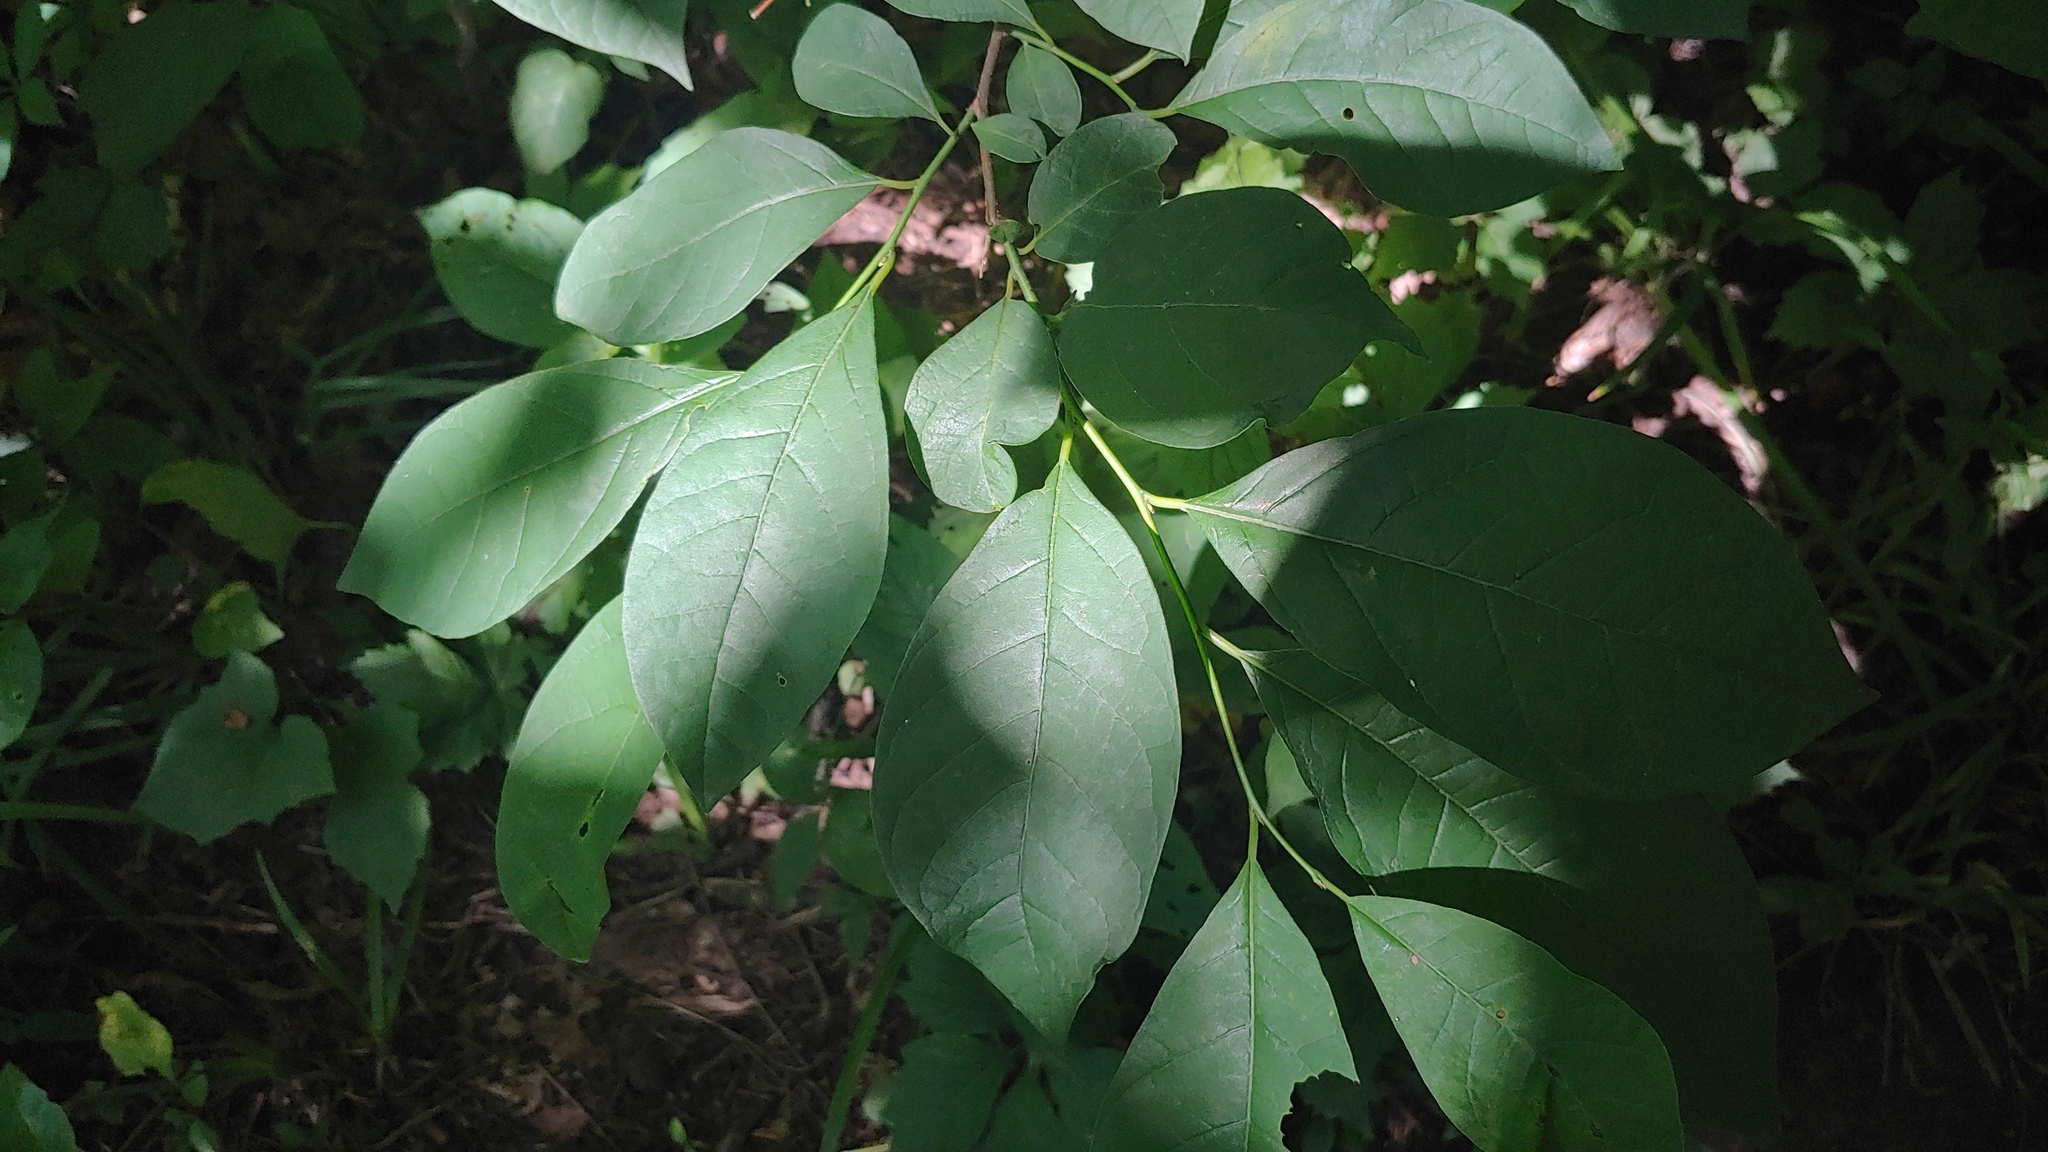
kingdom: Plantae
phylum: Tracheophyta
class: Magnoliopsida
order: Laurales
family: Lauraceae
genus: Lindera
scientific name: Lindera benzoin
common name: Spicebush
